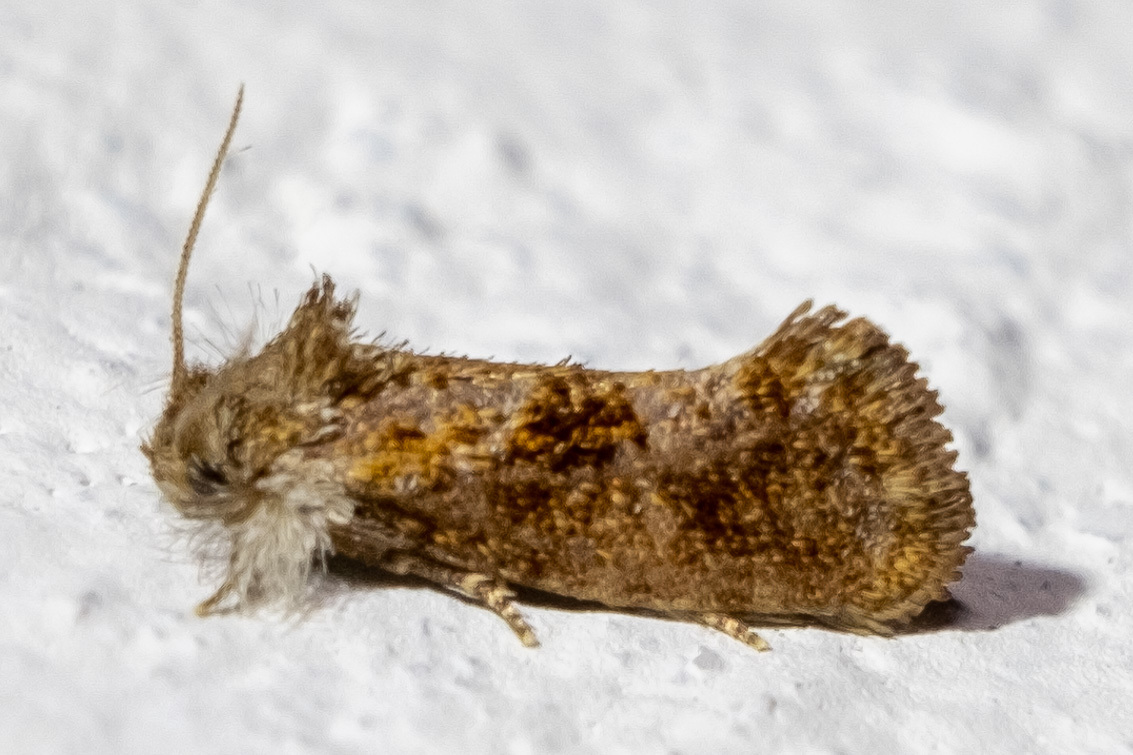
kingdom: Animalia
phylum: Arthropoda
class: Insecta
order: Lepidoptera
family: Tineidae
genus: Acrolophus
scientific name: Acrolophus panamae
